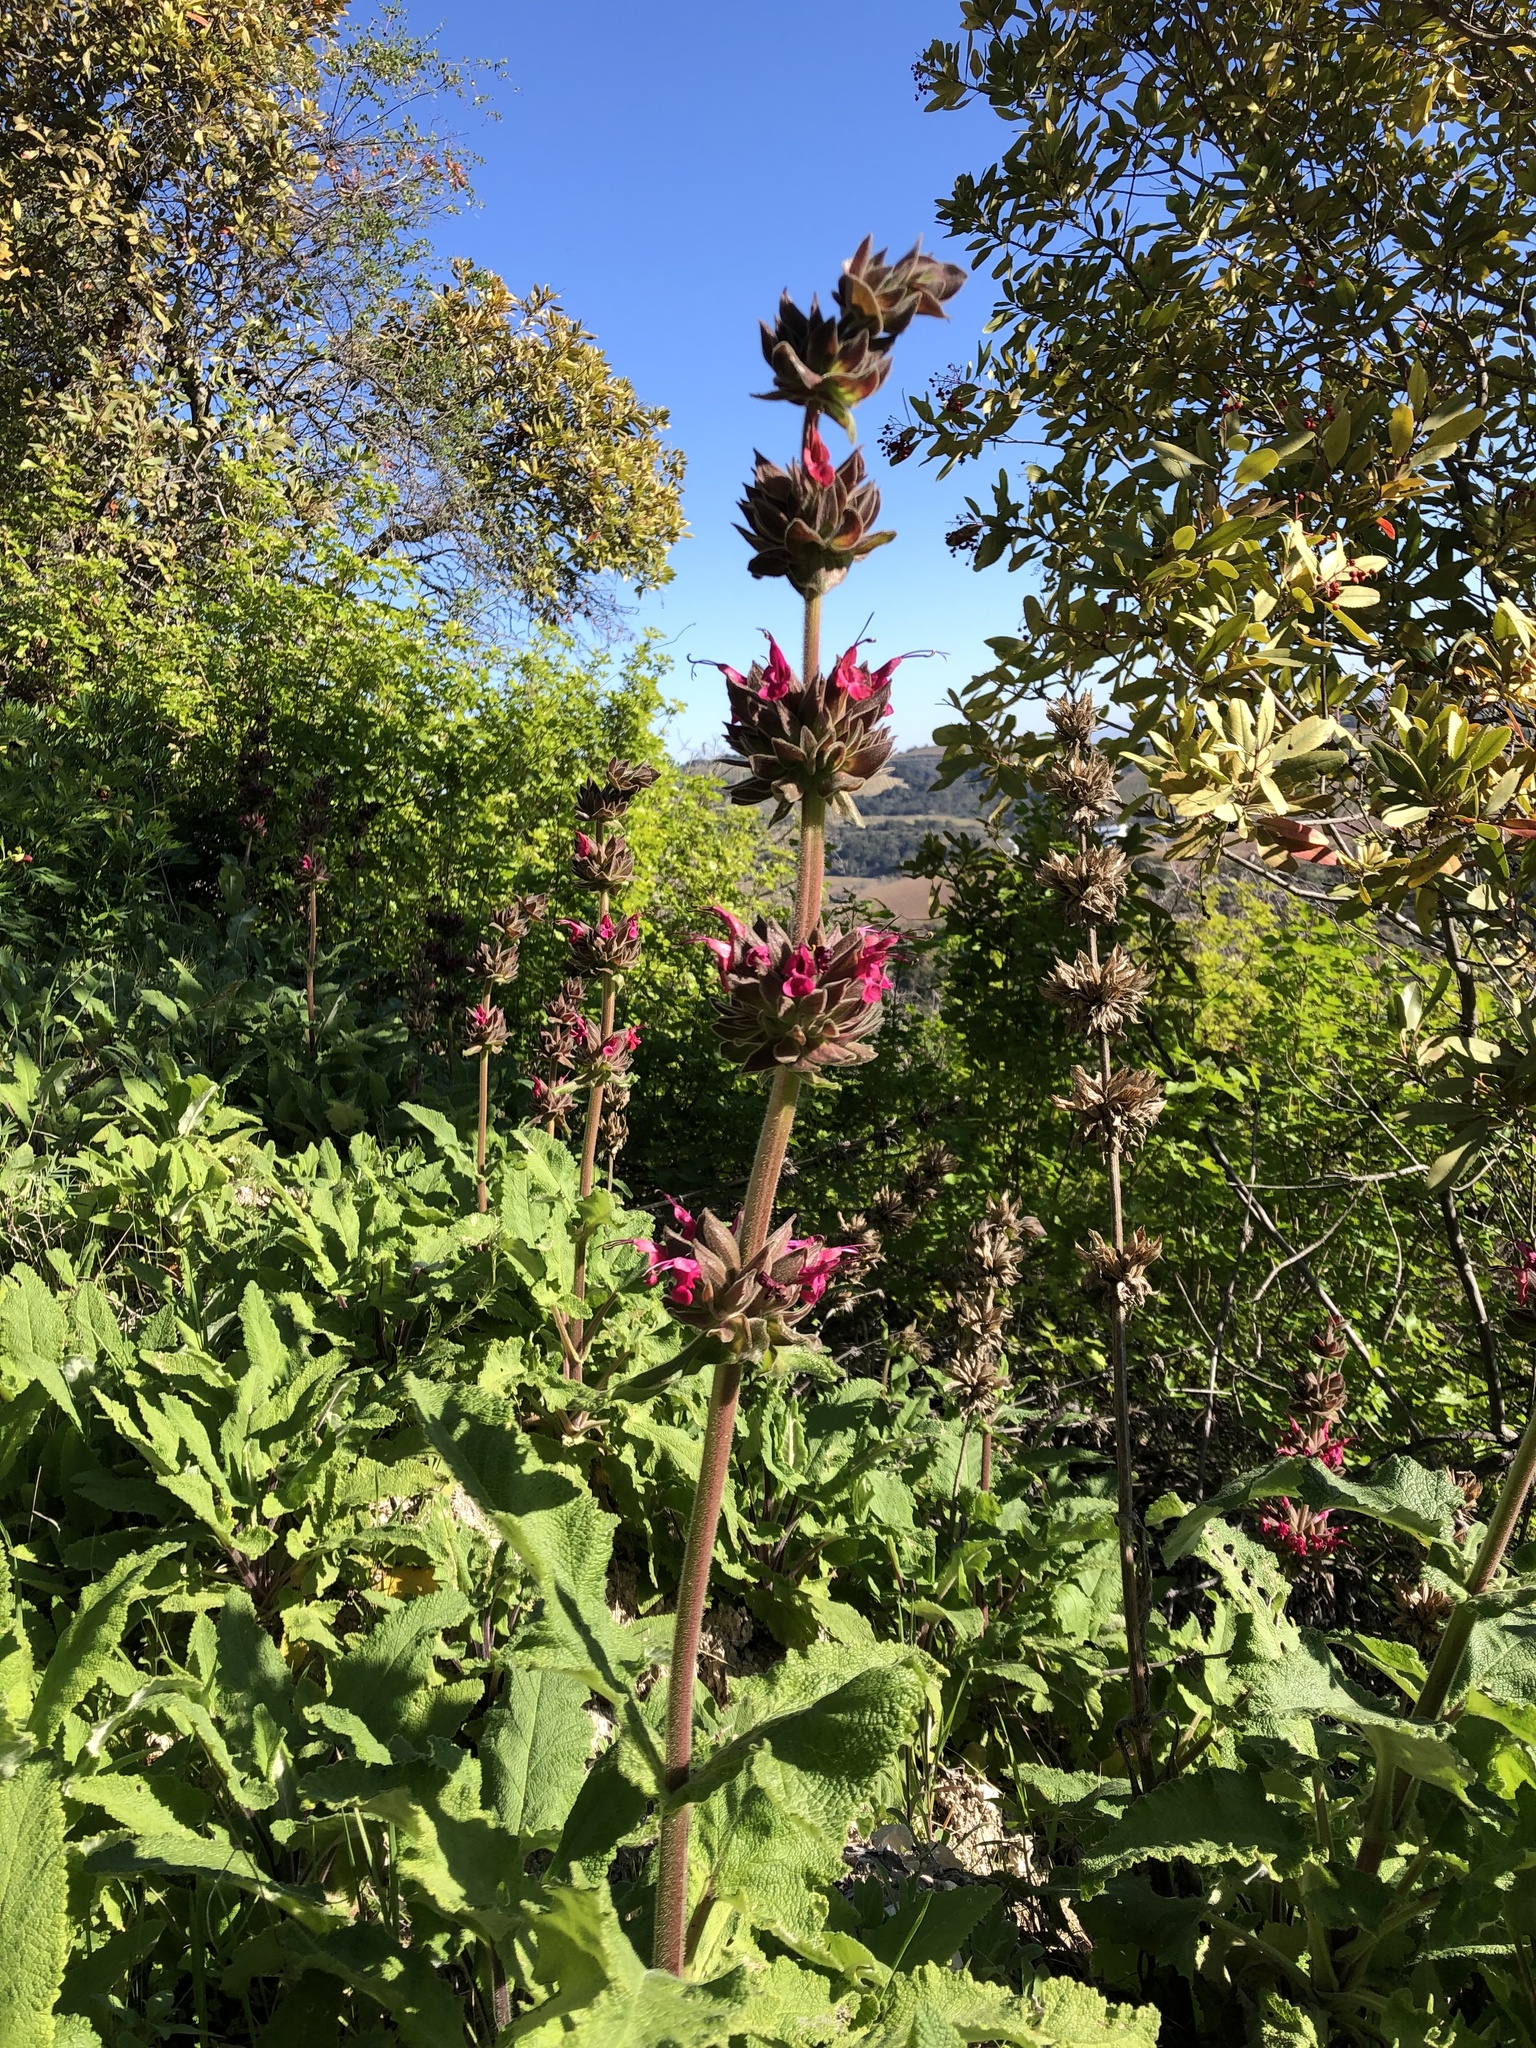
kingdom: Plantae
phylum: Tracheophyta
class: Magnoliopsida
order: Lamiales
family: Lamiaceae
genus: Salvia
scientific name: Salvia spathacea
